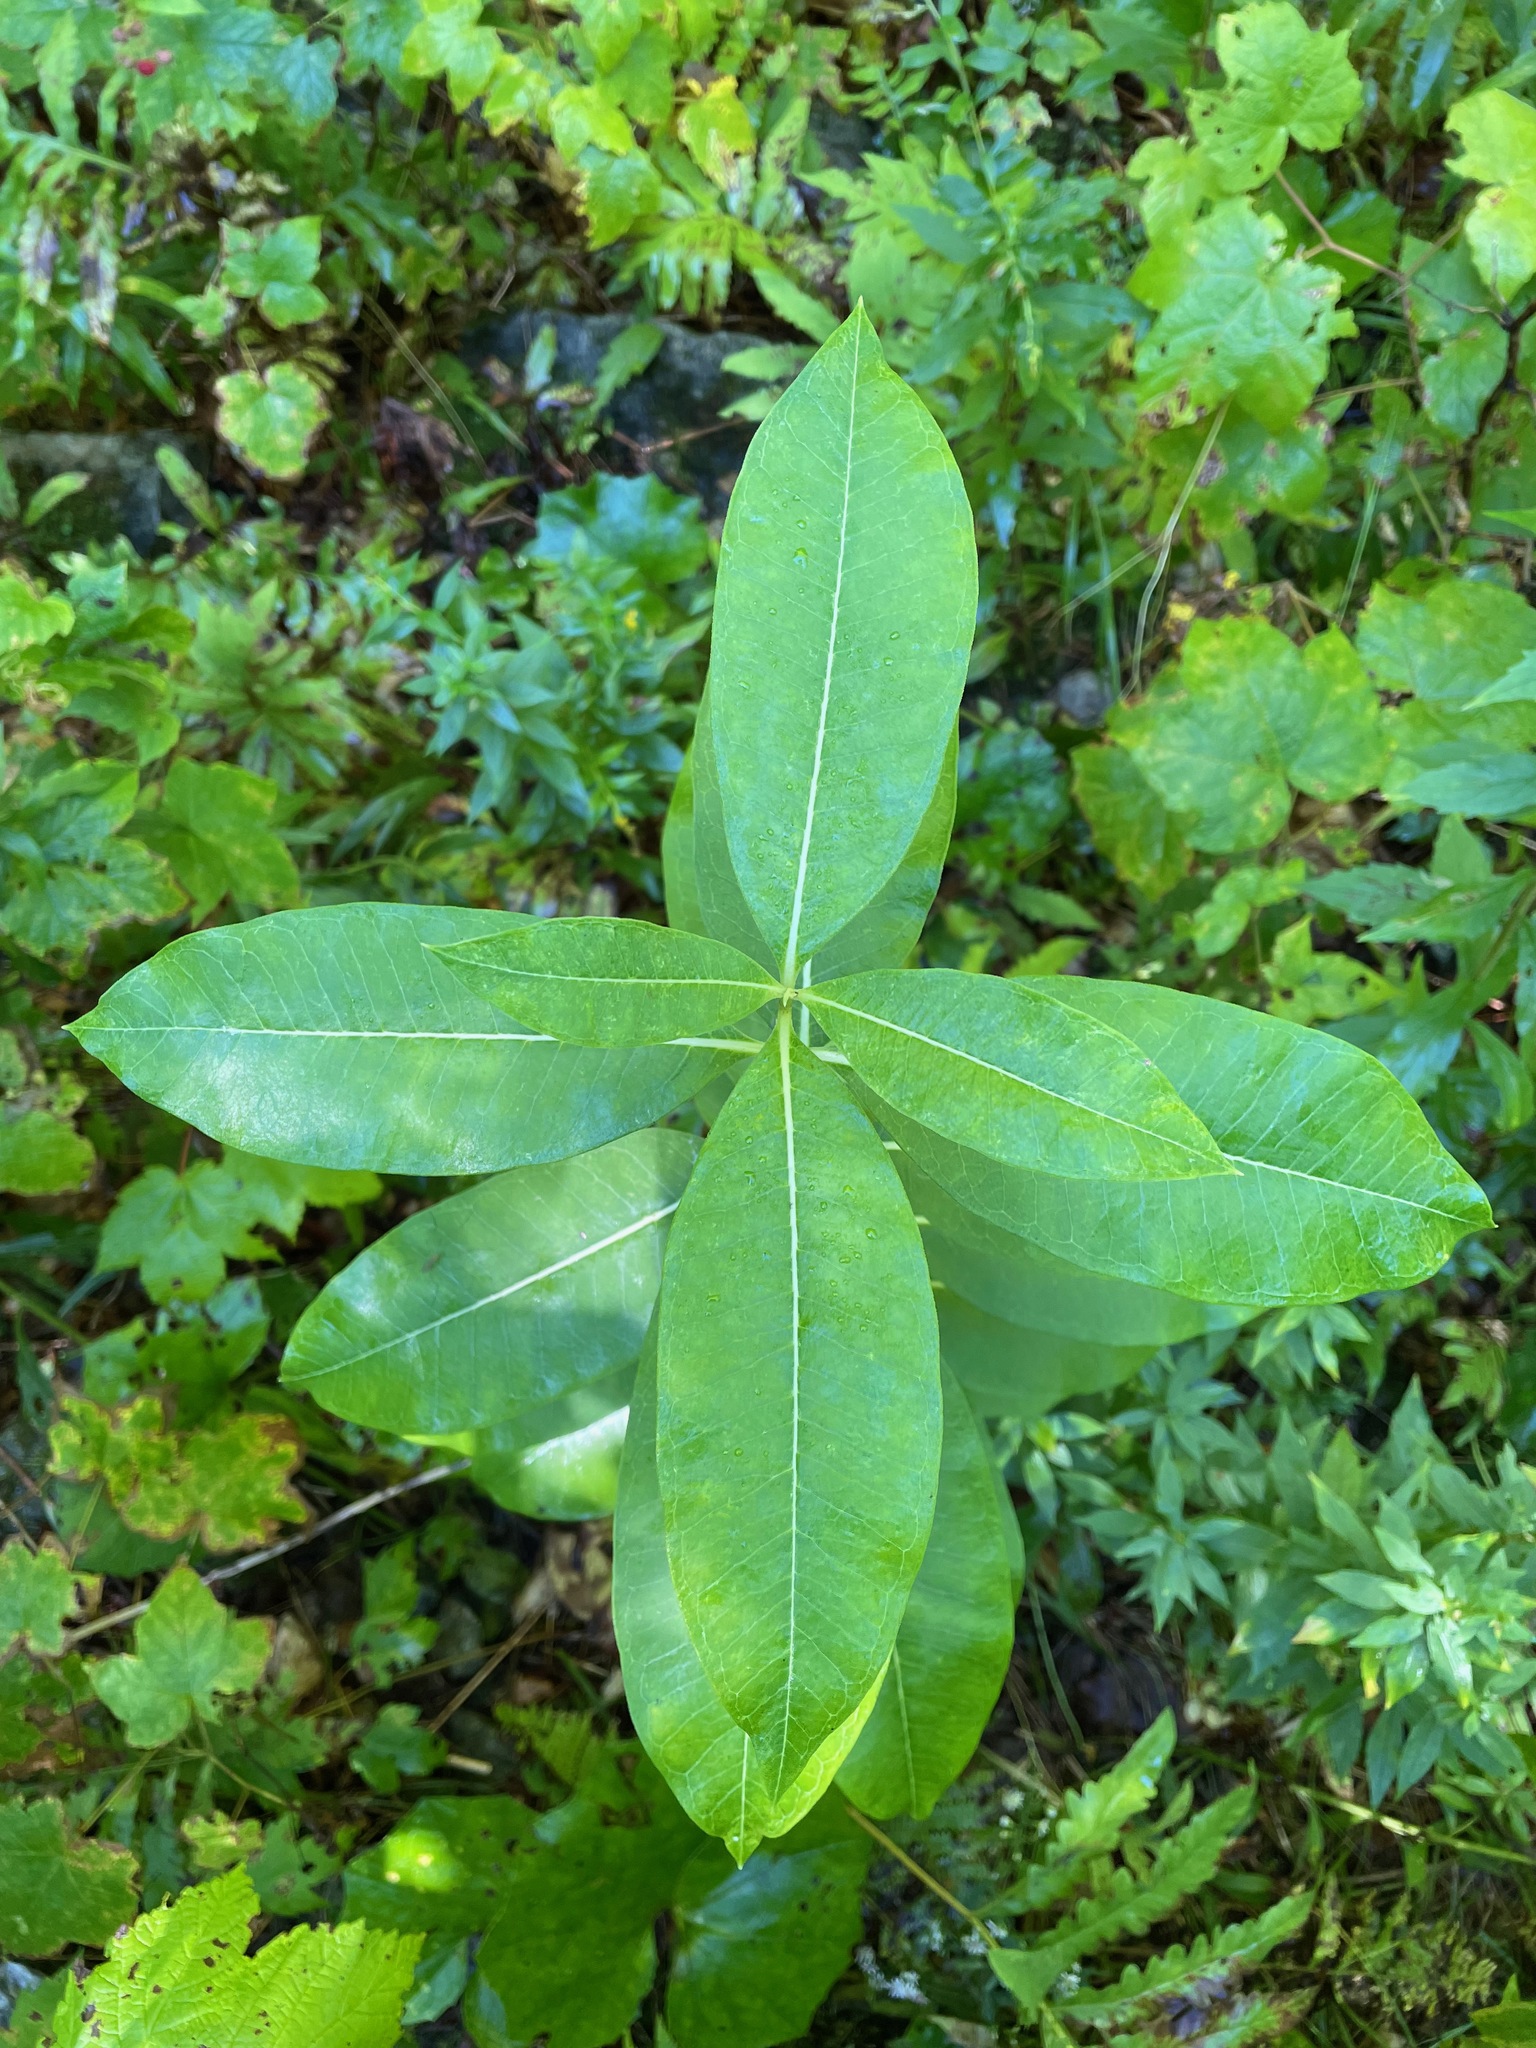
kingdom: Plantae
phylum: Tracheophyta
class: Magnoliopsida
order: Gentianales
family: Apocynaceae
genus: Asclepias
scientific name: Asclepias syriaca
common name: Common milkweed
